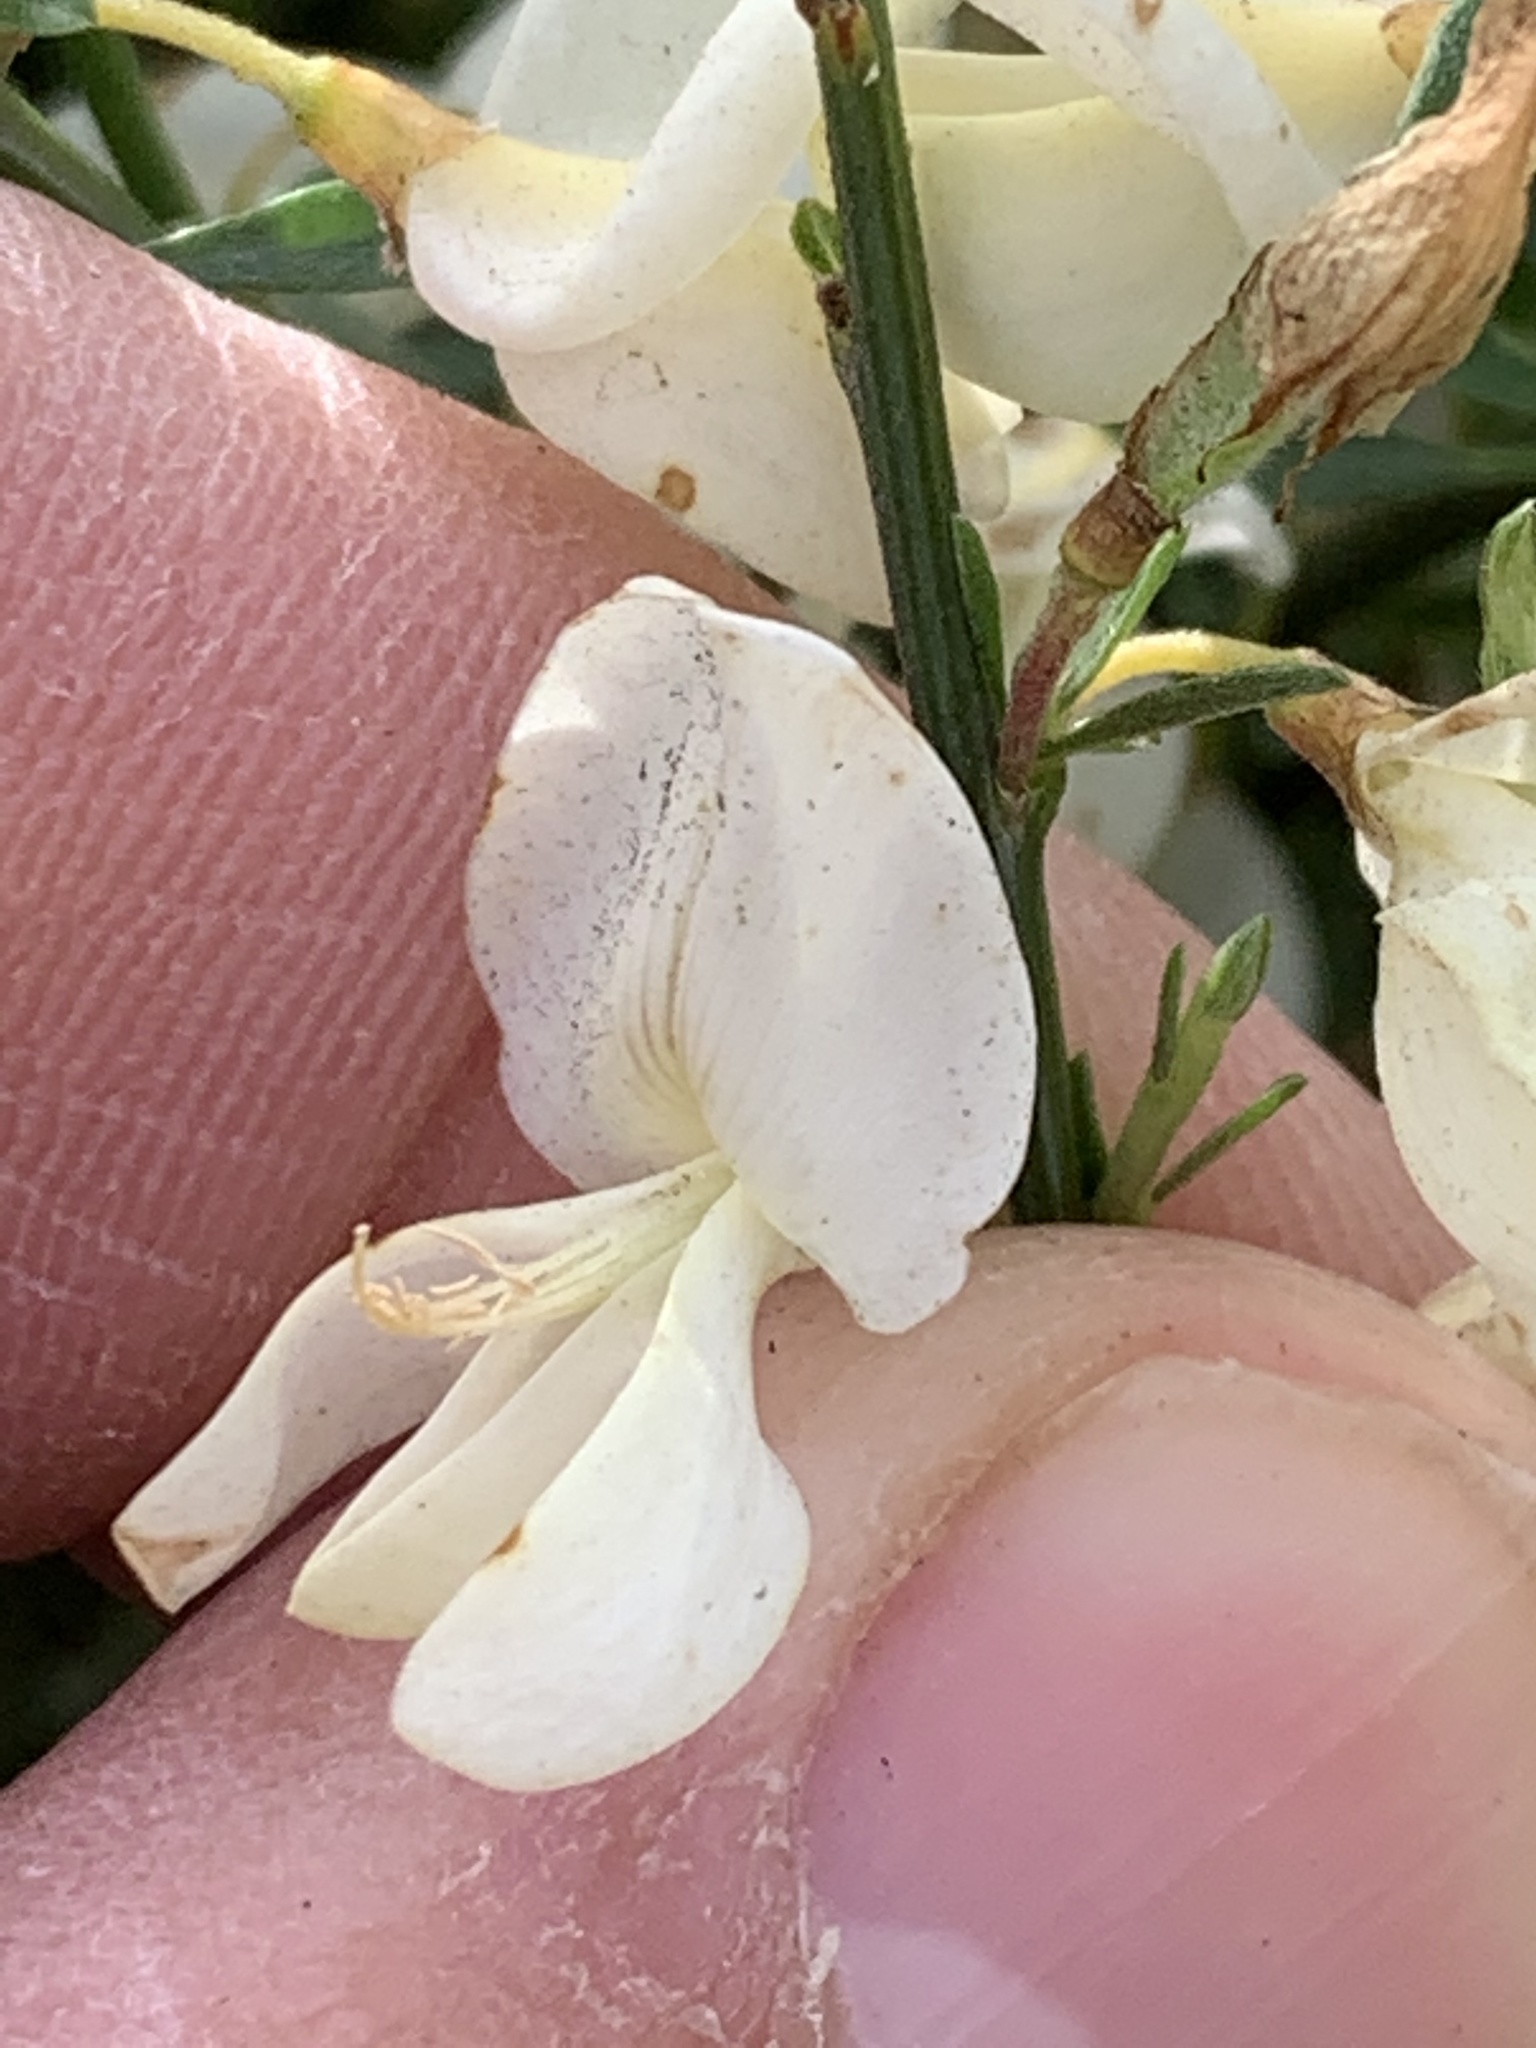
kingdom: Plantae
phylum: Tracheophyta
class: Magnoliopsida
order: Fabales
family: Fabaceae
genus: Cytisus
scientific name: Cytisus multiflorus
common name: White broom
